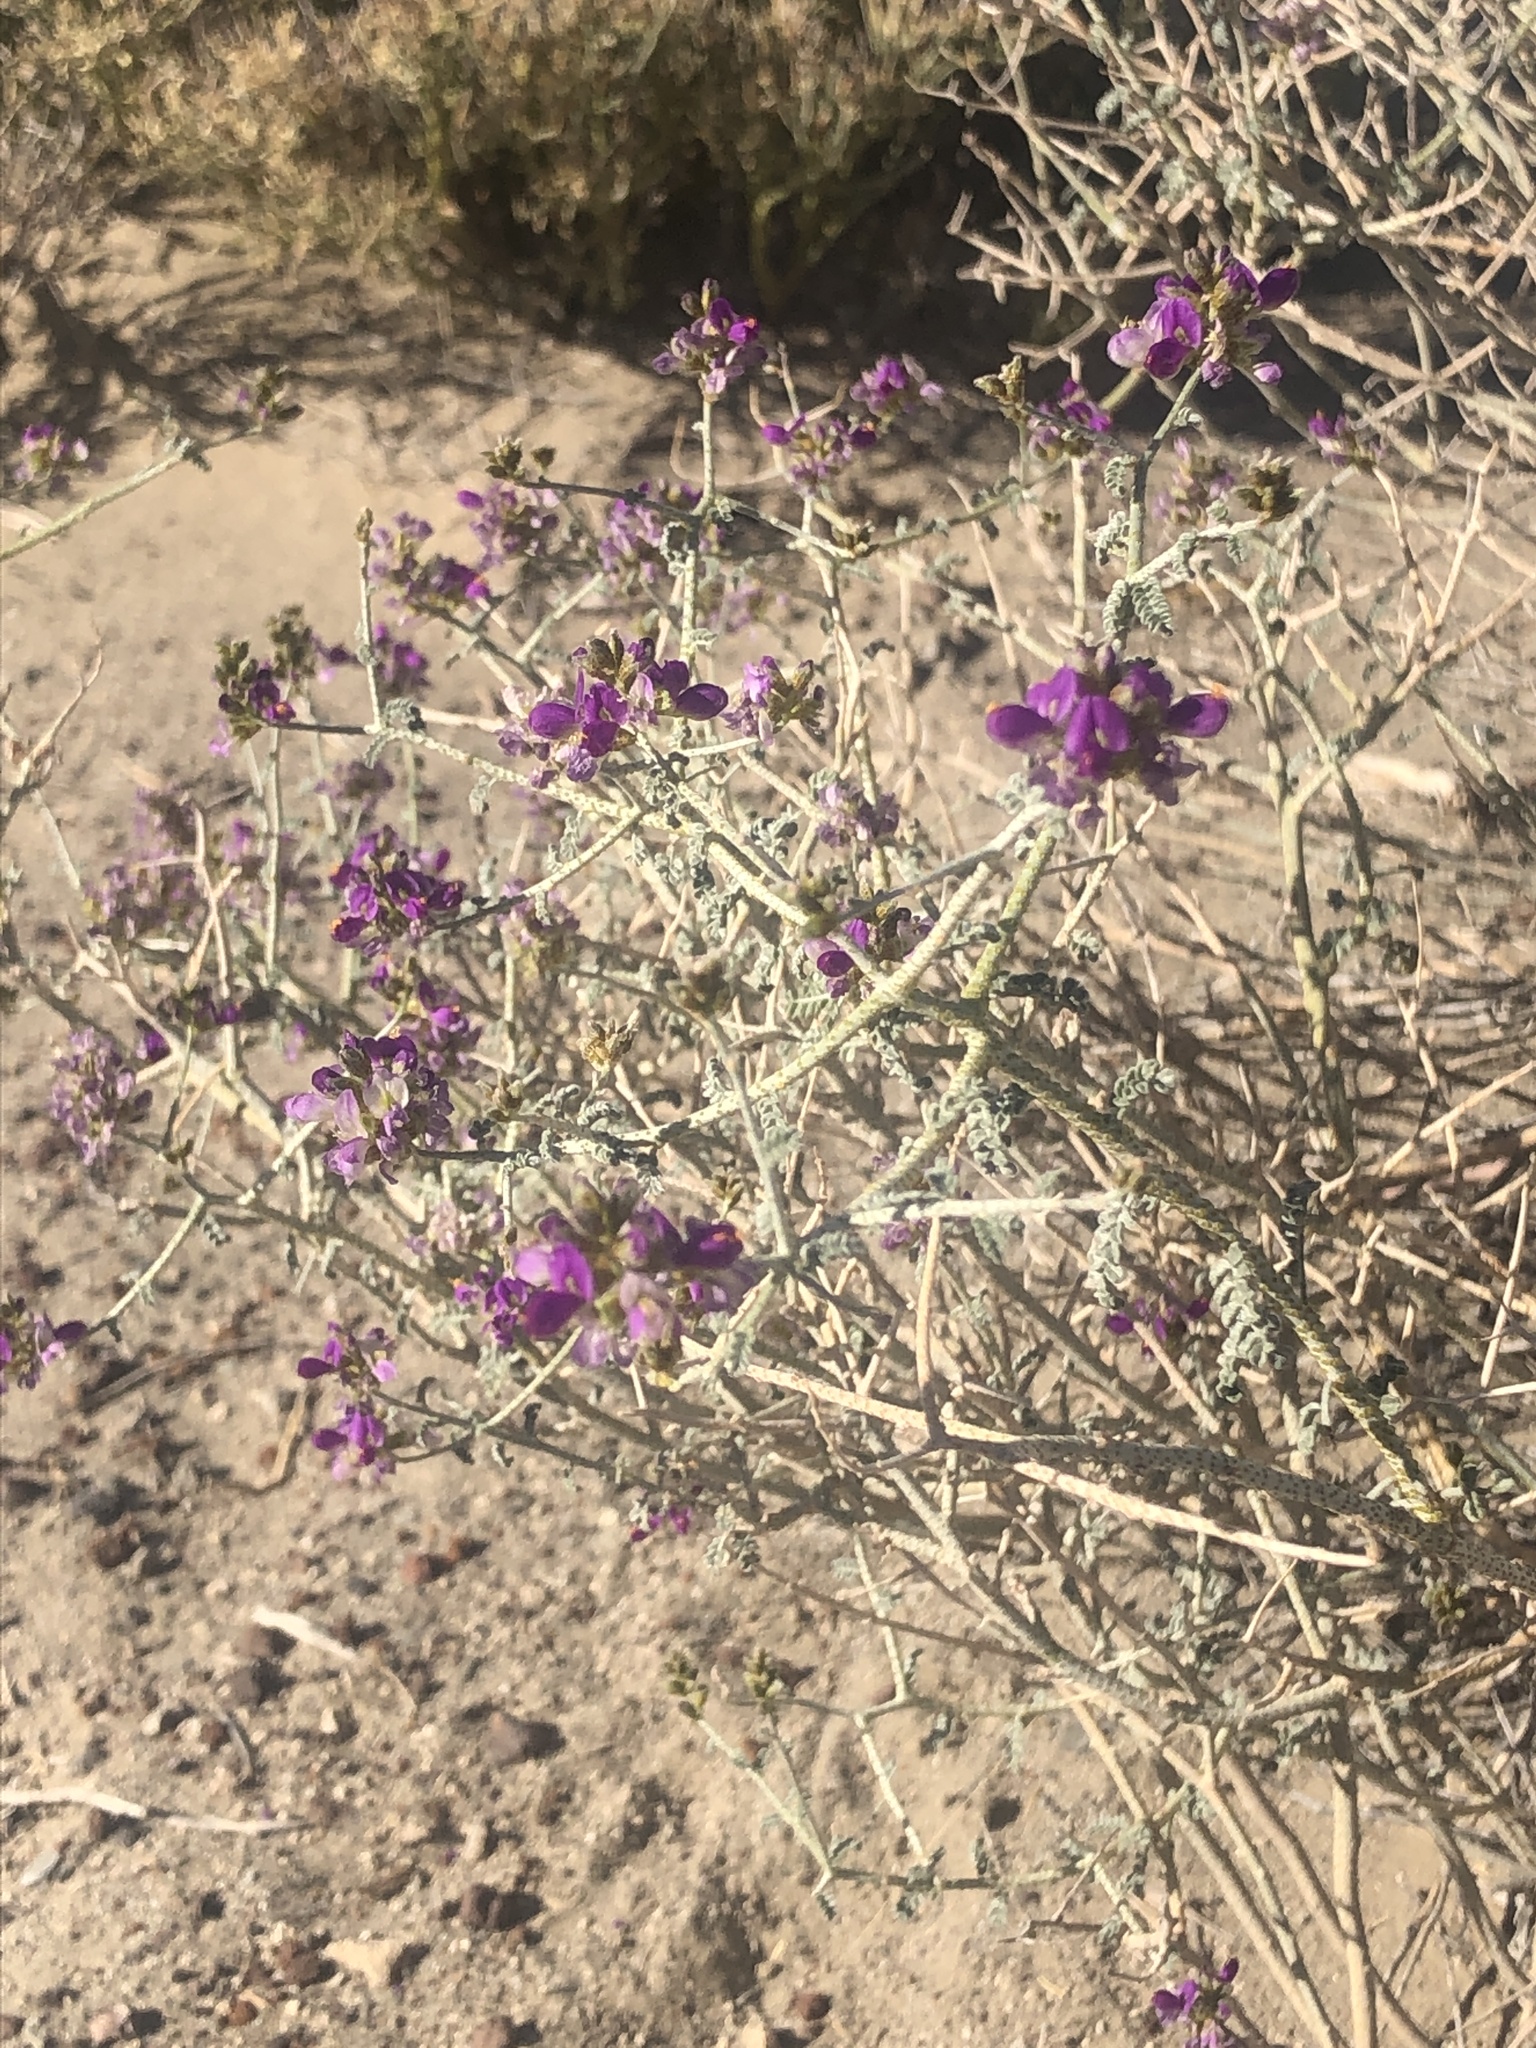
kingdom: Plantae
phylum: Tracheophyta
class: Magnoliopsida
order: Fabales
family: Fabaceae
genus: Psorothamnus
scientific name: Psorothamnus polydenius
